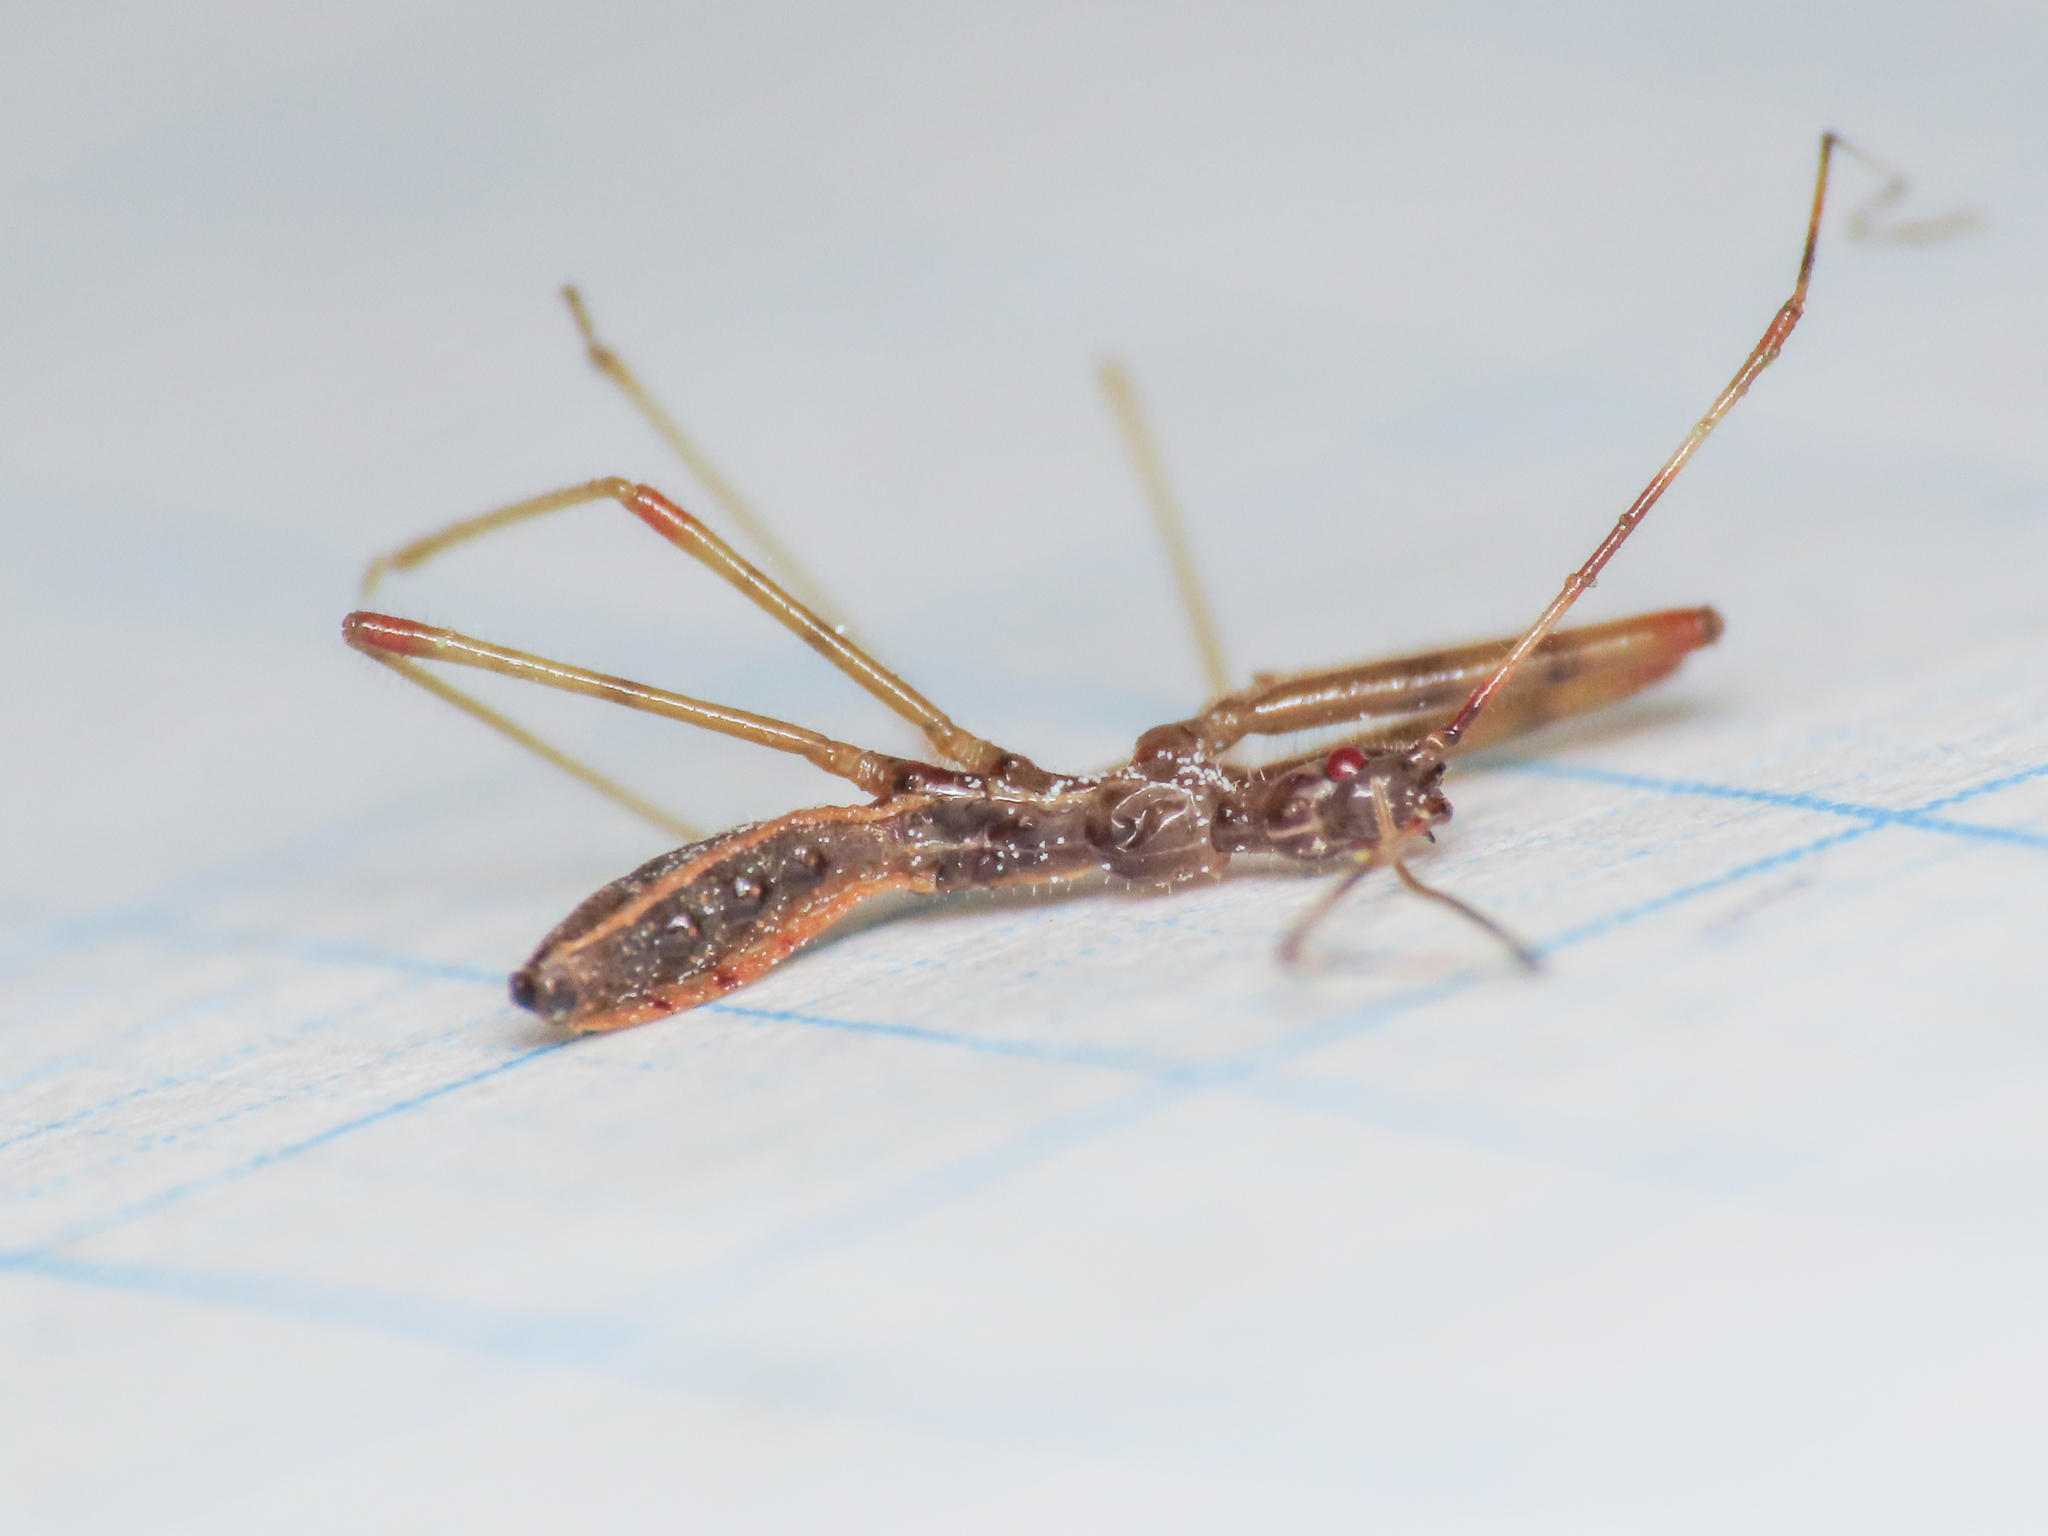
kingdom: Animalia
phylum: Arthropoda
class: Insecta
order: Hemiptera
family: Reduviidae
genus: Nagusta
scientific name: Nagusta goedelii
